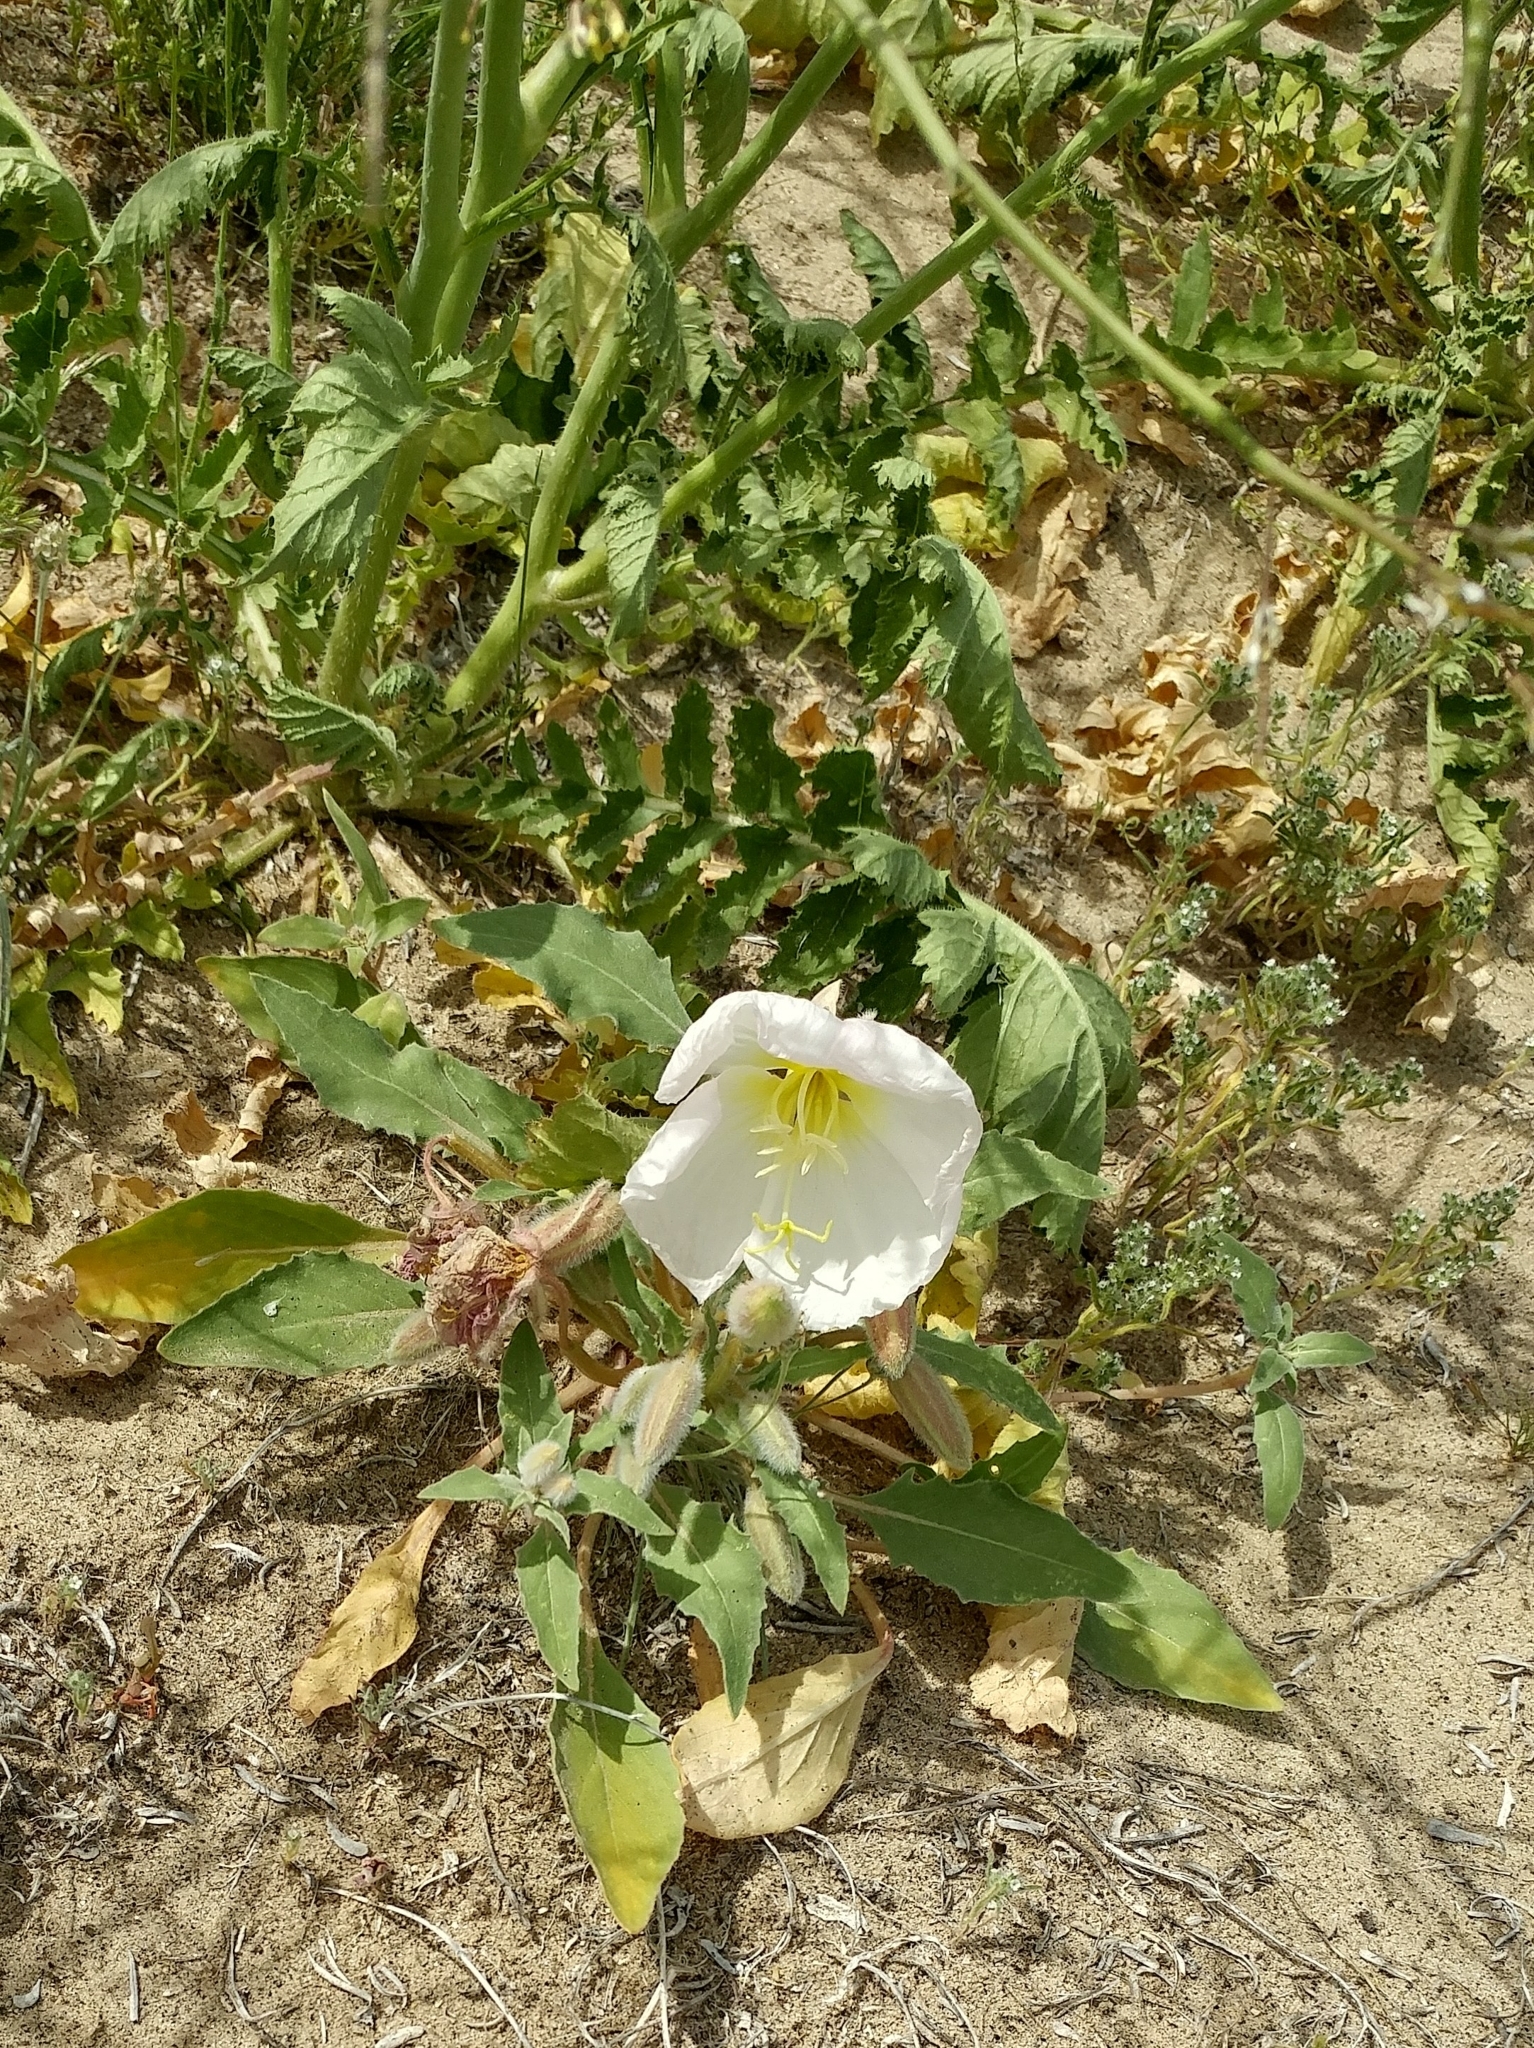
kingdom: Plantae
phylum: Tracheophyta
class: Magnoliopsida
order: Myrtales
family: Onagraceae
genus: Oenothera
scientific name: Oenothera deltoides
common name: Basket evening-primrose
